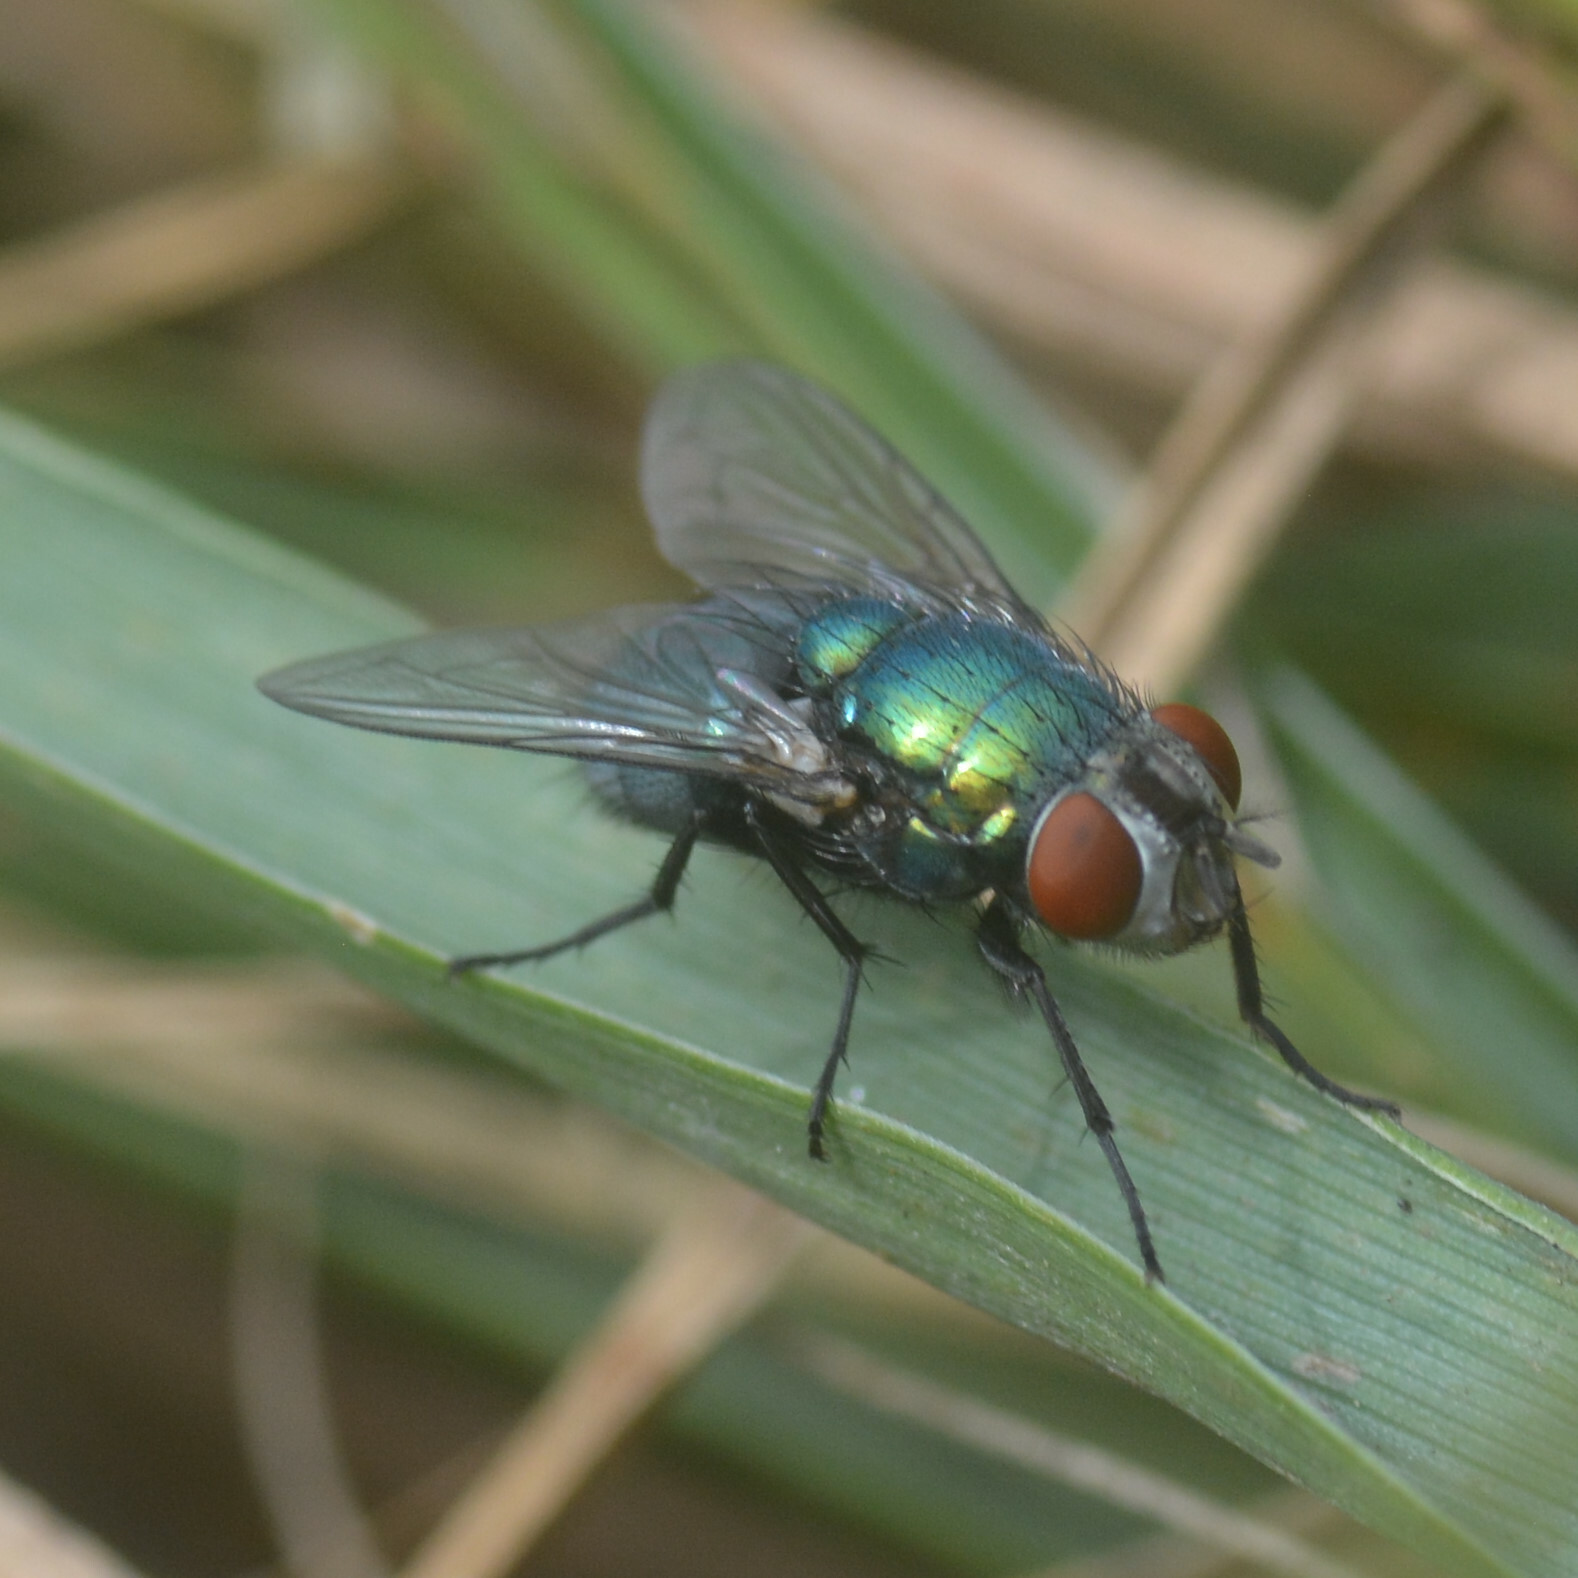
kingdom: Animalia
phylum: Arthropoda
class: Insecta
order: Diptera
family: Calliphoridae
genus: Lucilia
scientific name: Lucilia sericata
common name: Blow fly
